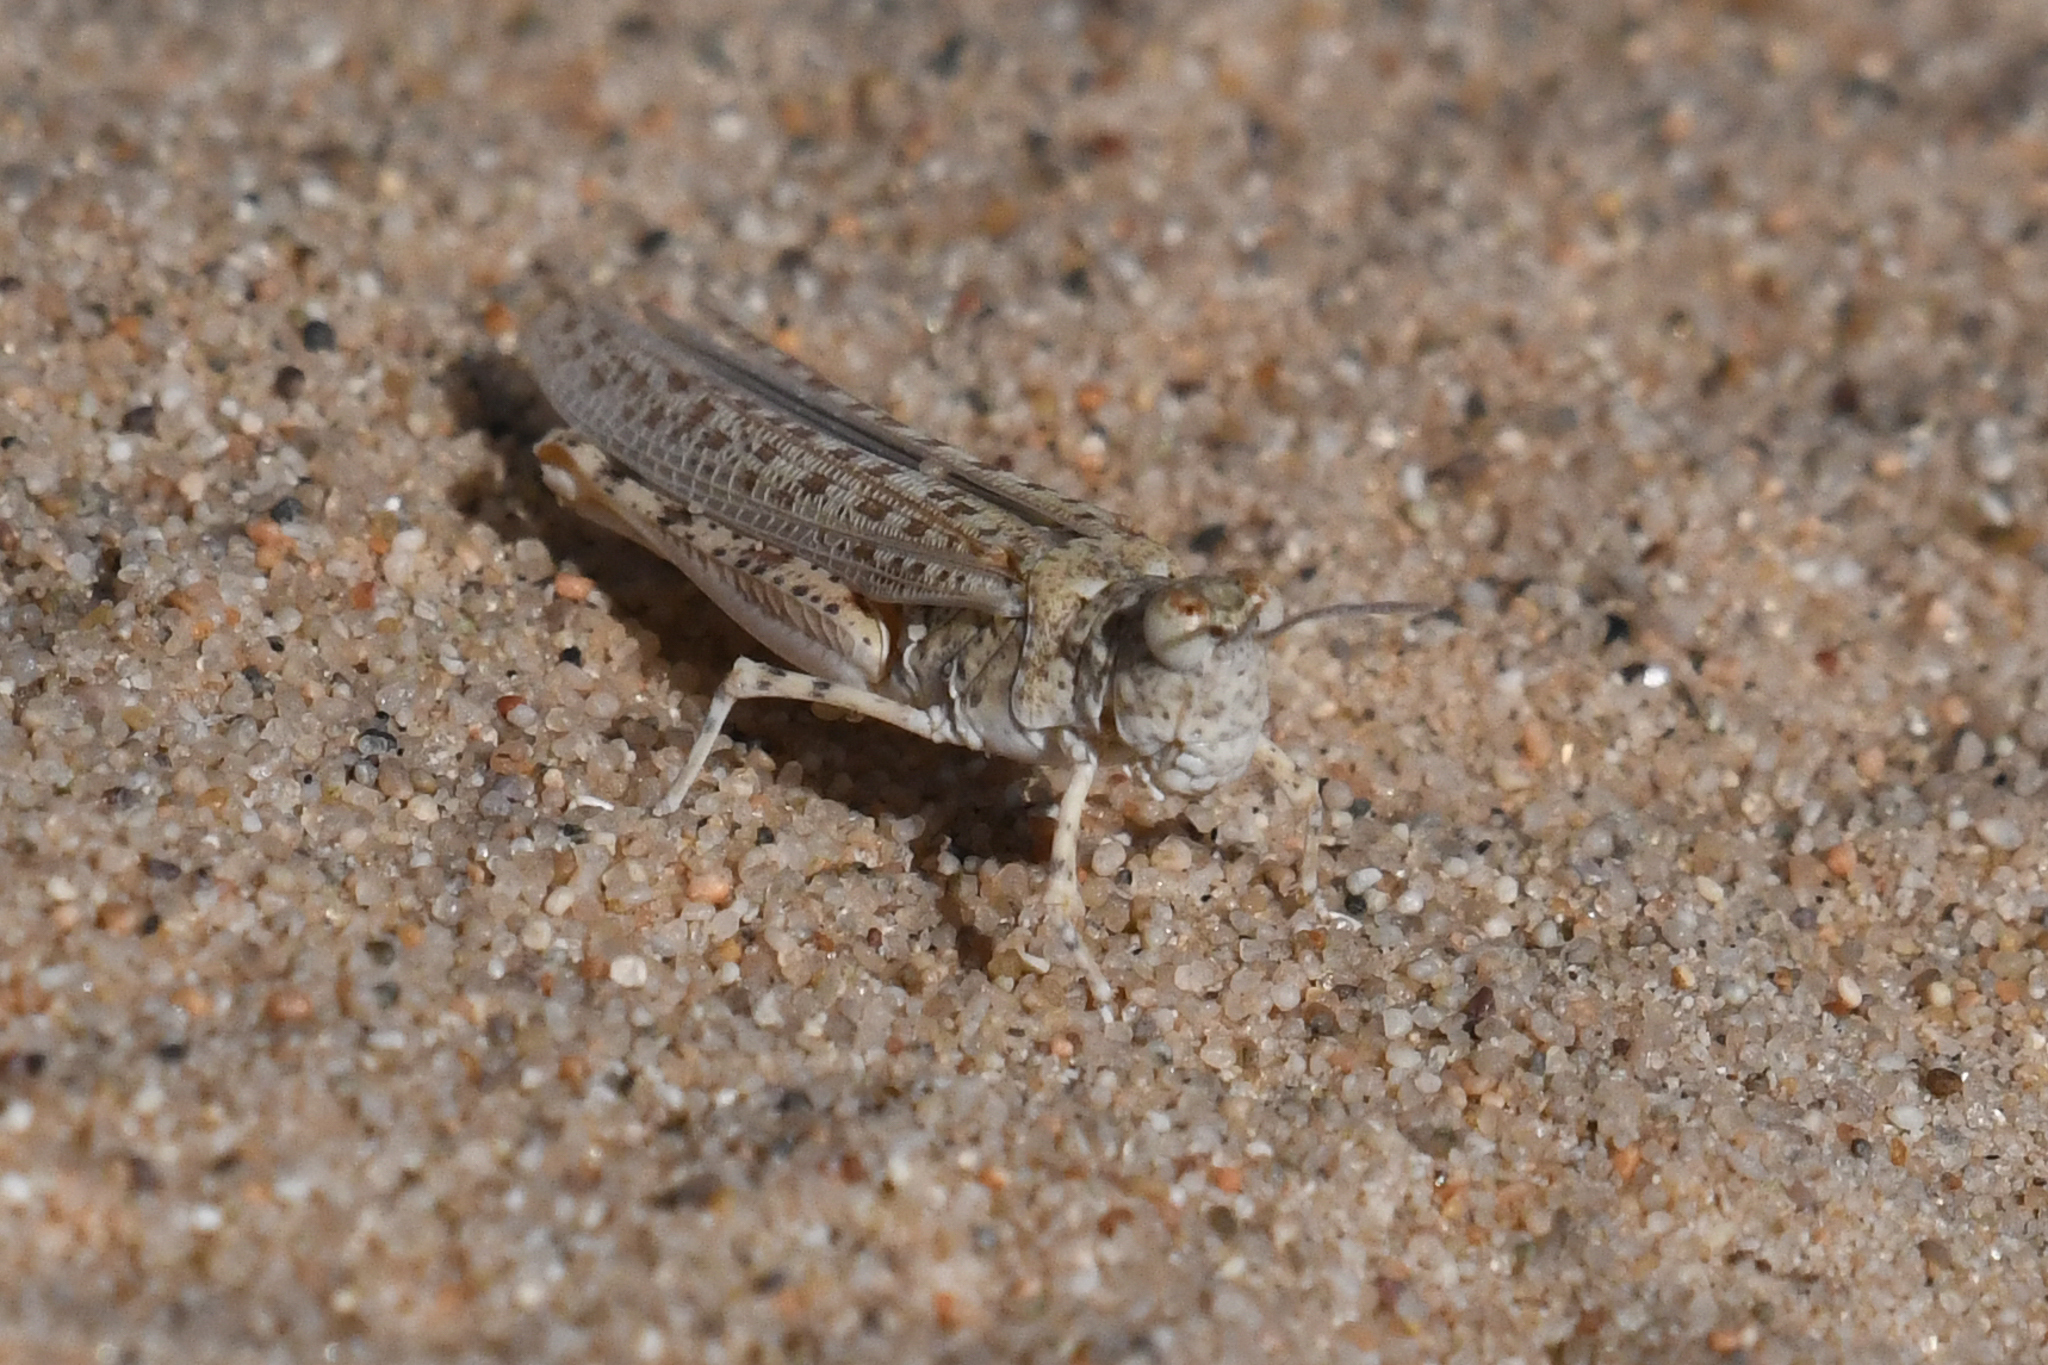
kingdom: Animalia
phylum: Arthropoda
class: Insecta
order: Orthoptera
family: Acrididae
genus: Xeracris
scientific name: Xeracris snowi
